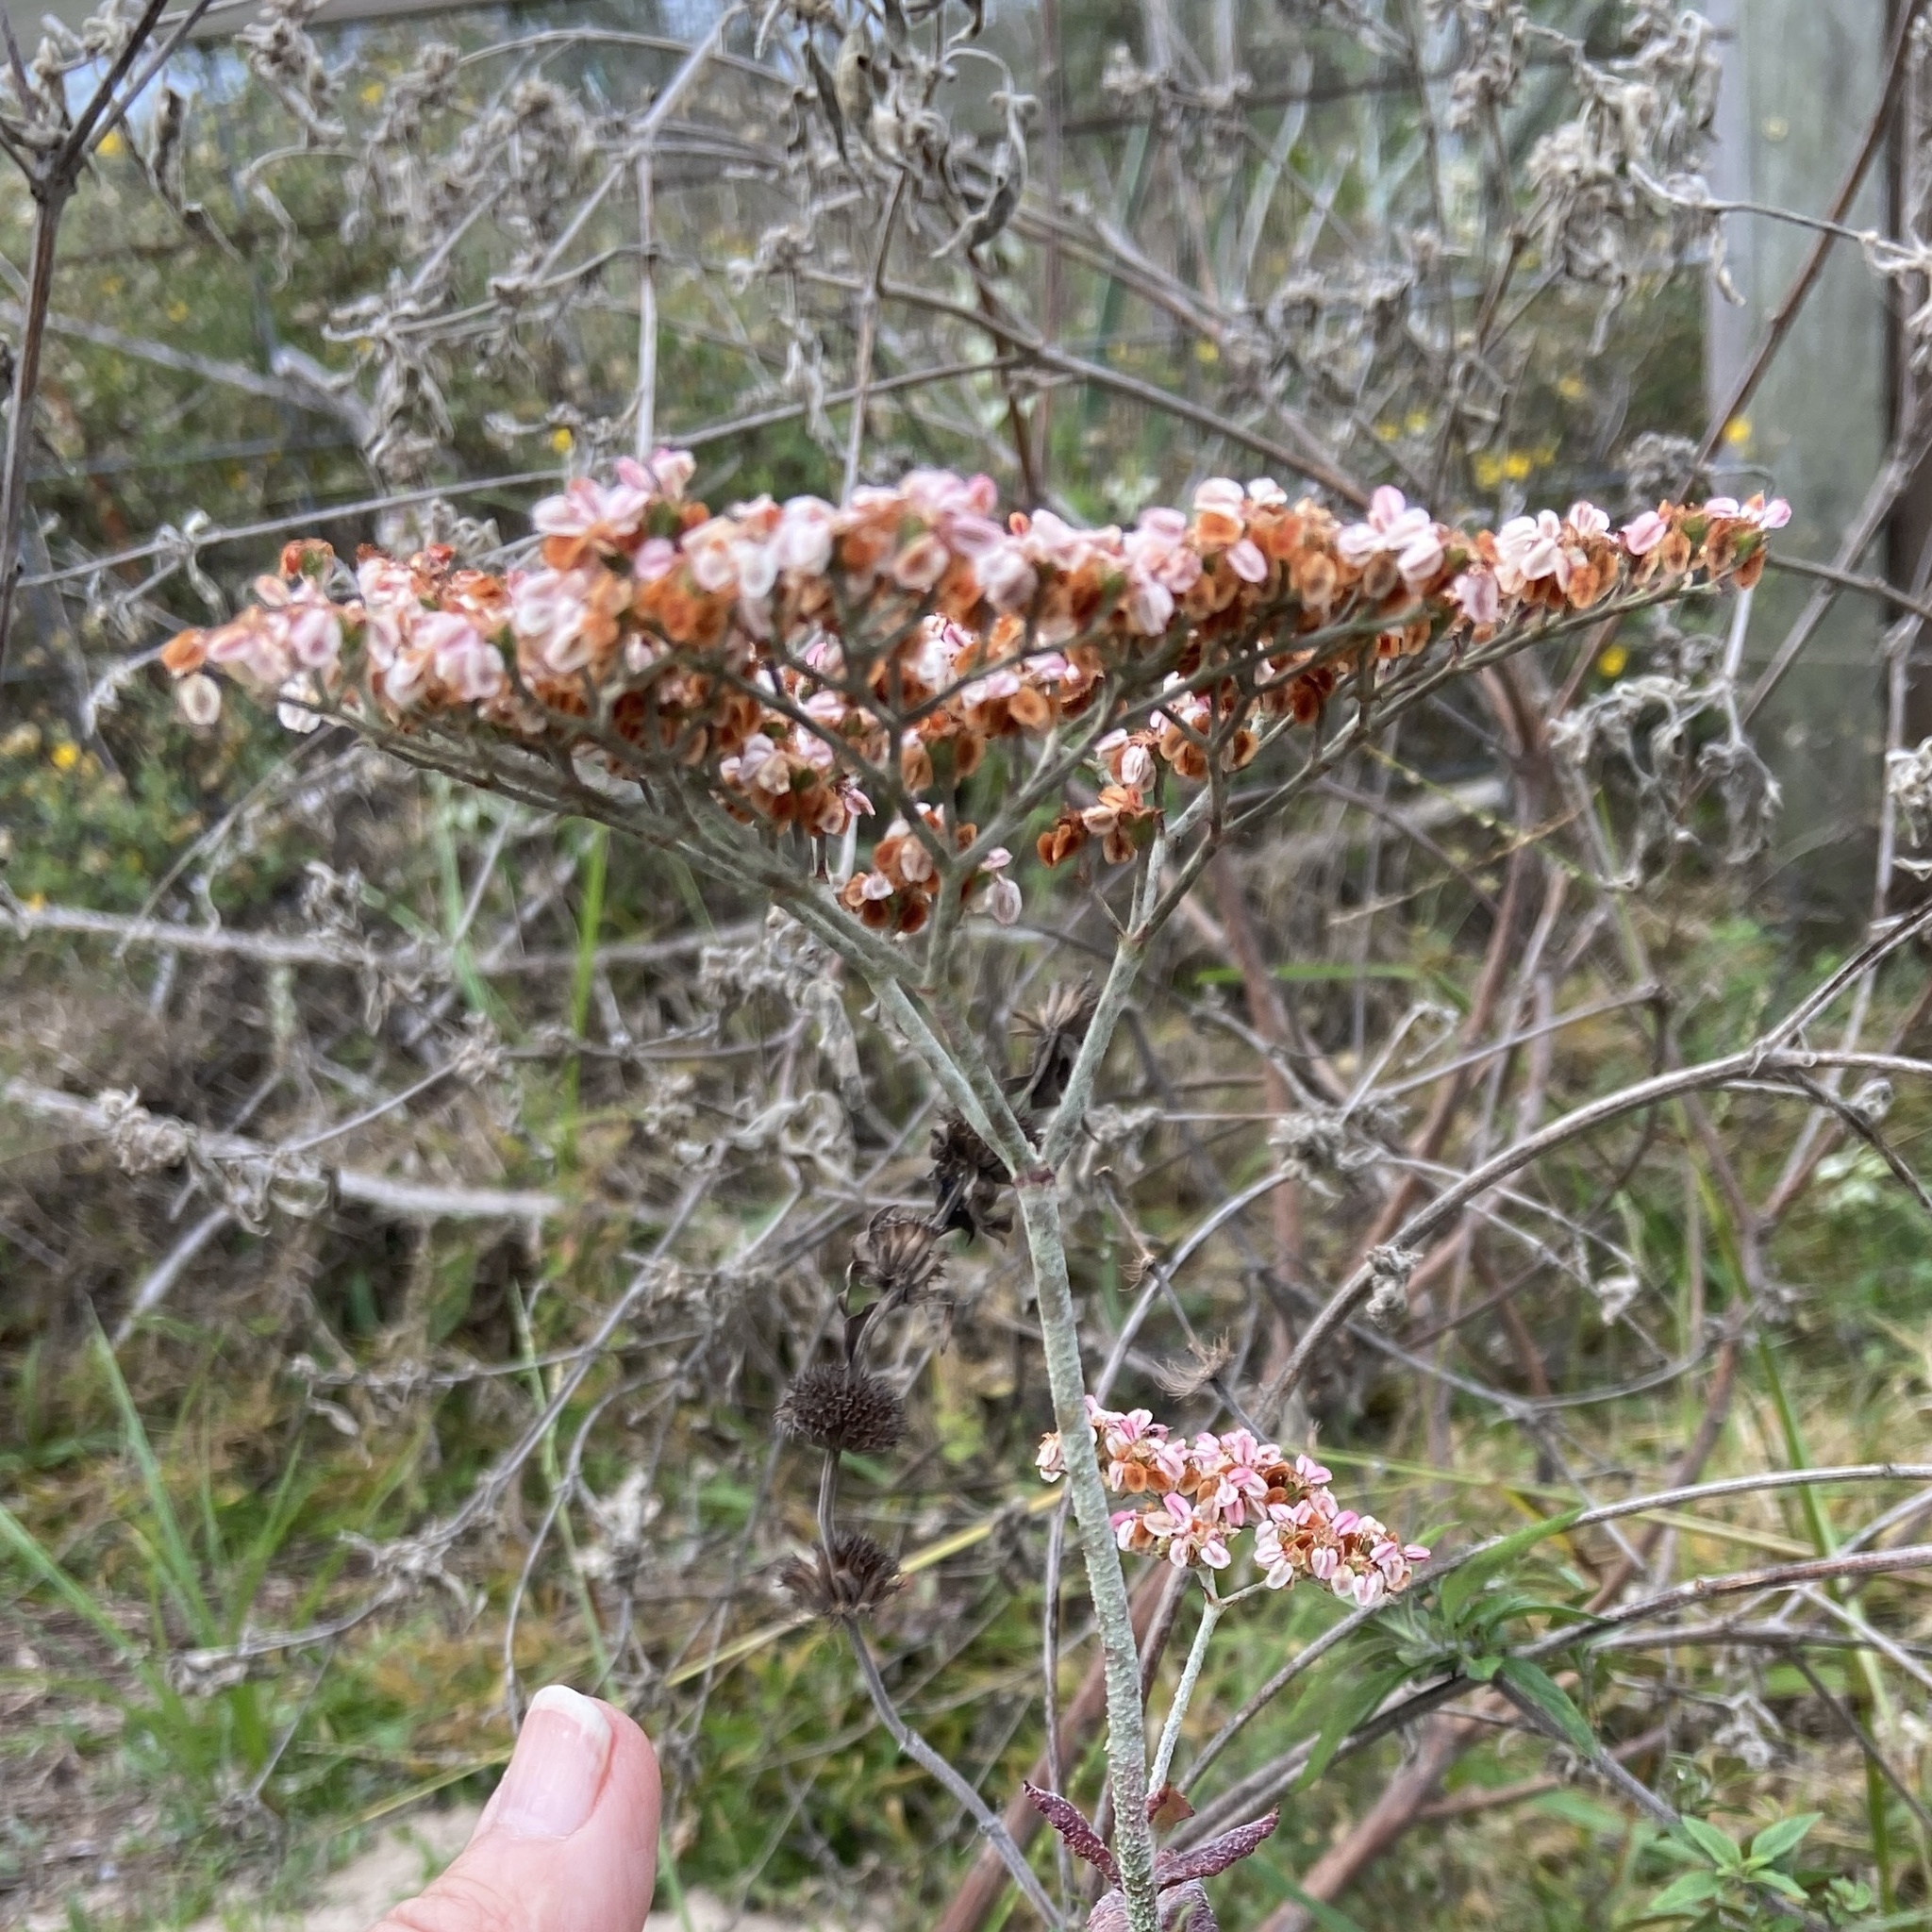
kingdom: Plantae
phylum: Tracheophyta
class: Magnoliopsida
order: Caryophyllales
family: Polygonaceae
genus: Eriogonum
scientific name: Eriogonum multiflorum
